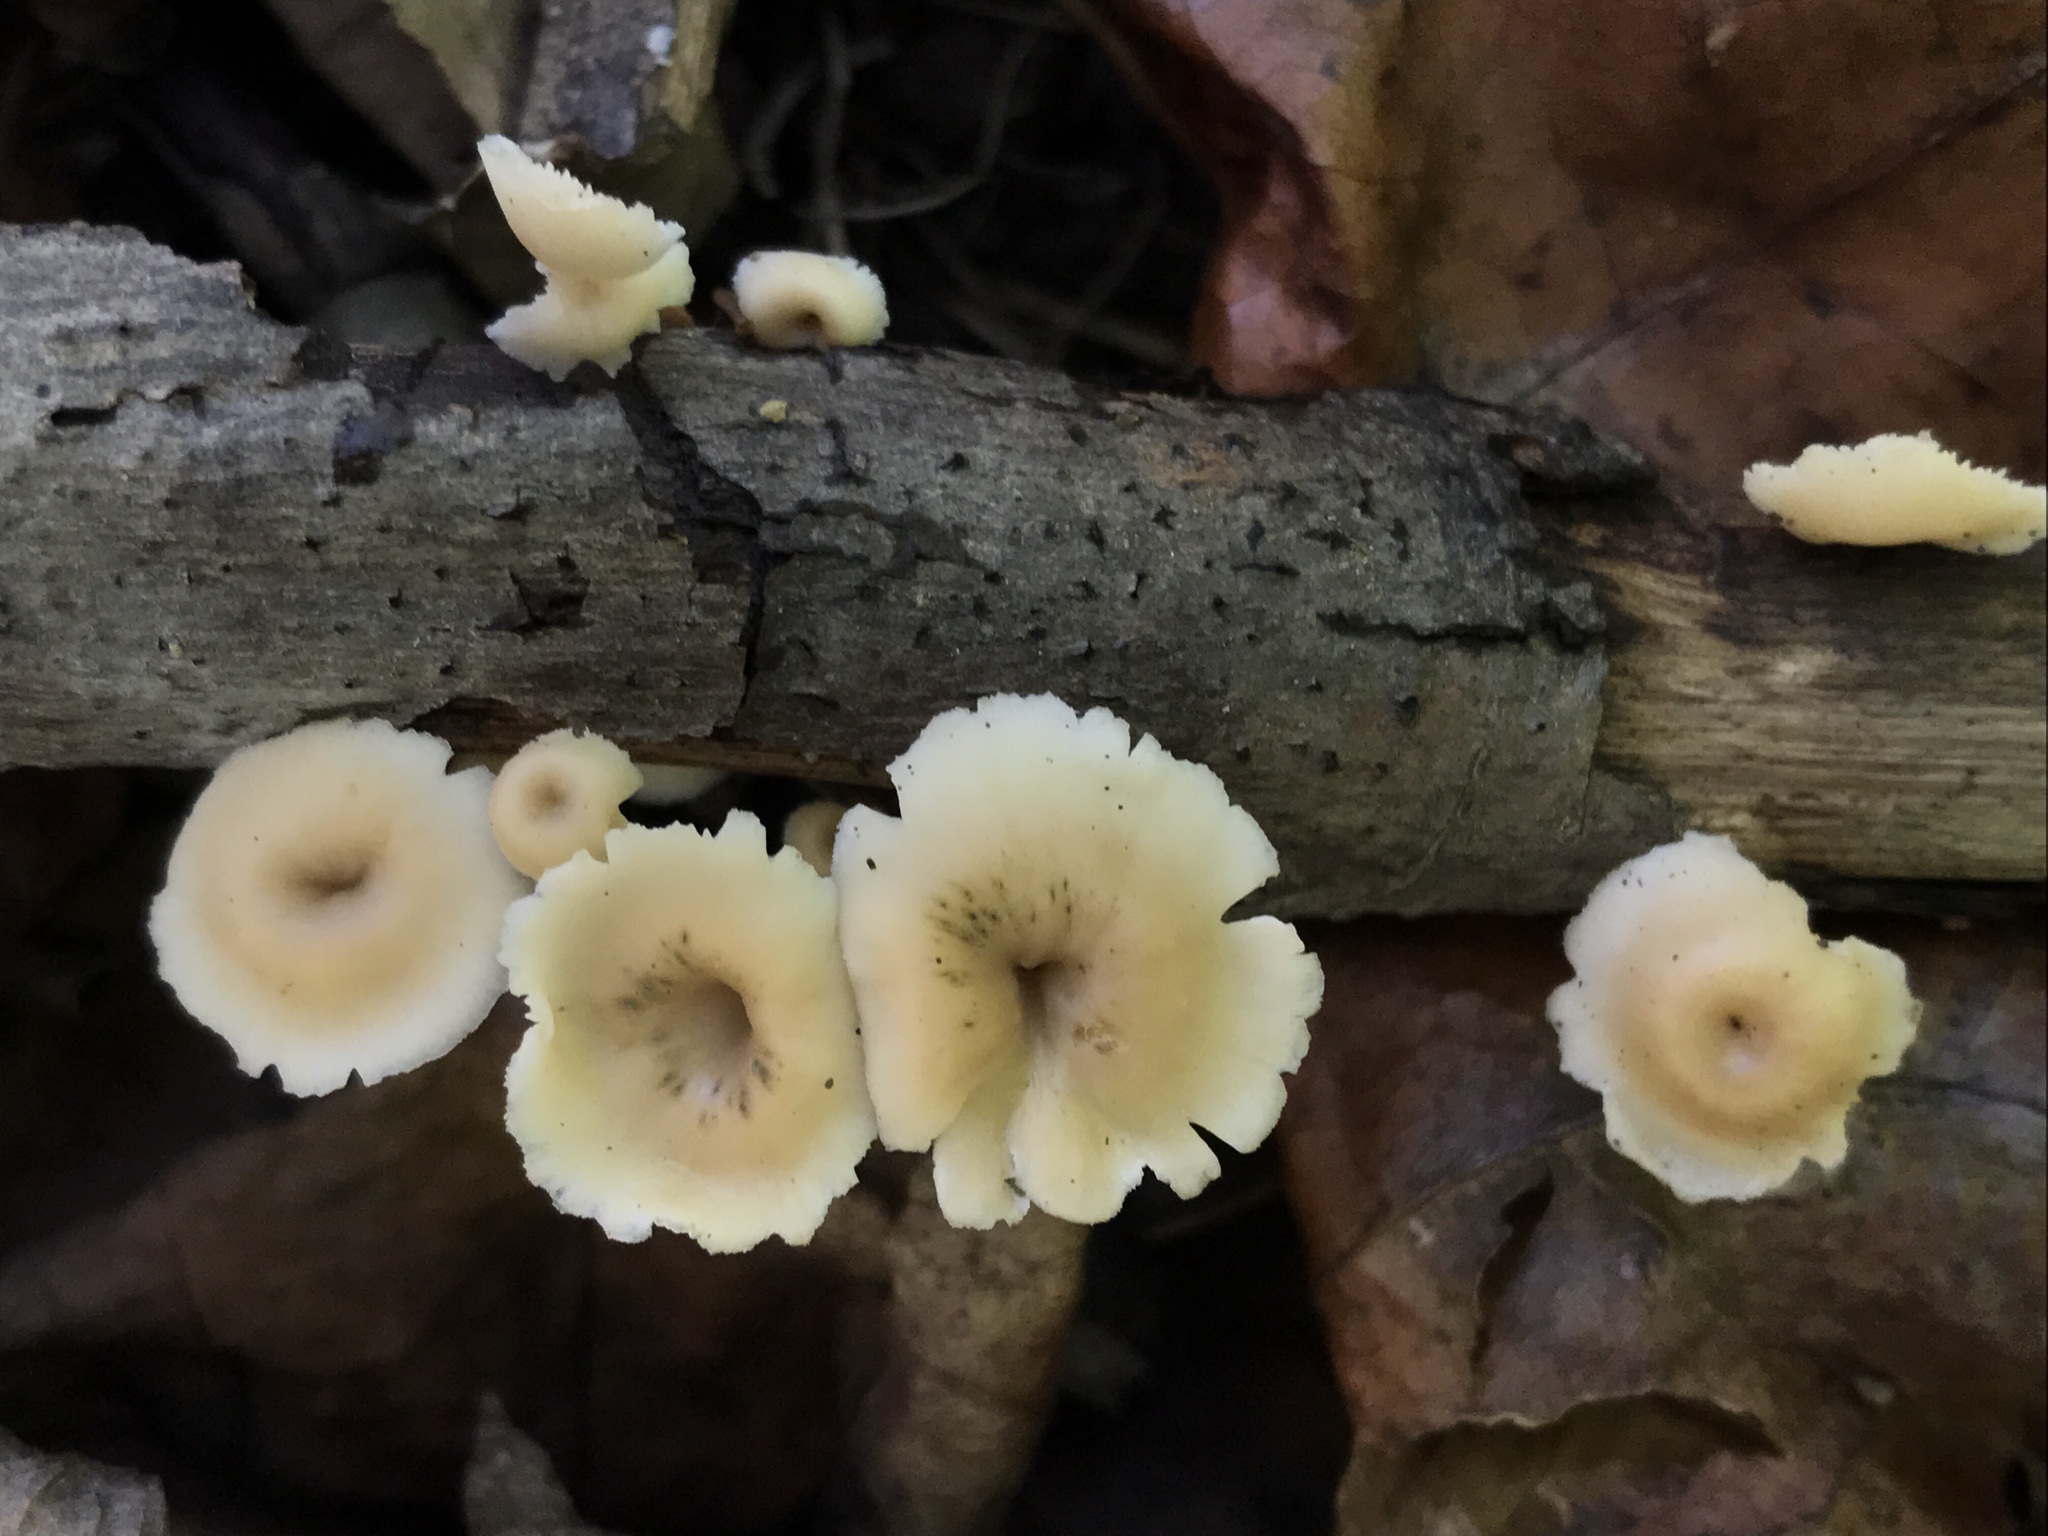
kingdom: Fungi
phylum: Basidiomycota
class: Agaricomycetes
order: Russulales
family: Auriscalpiaceae
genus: Lentinellus
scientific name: Lentinellus subaustralis
